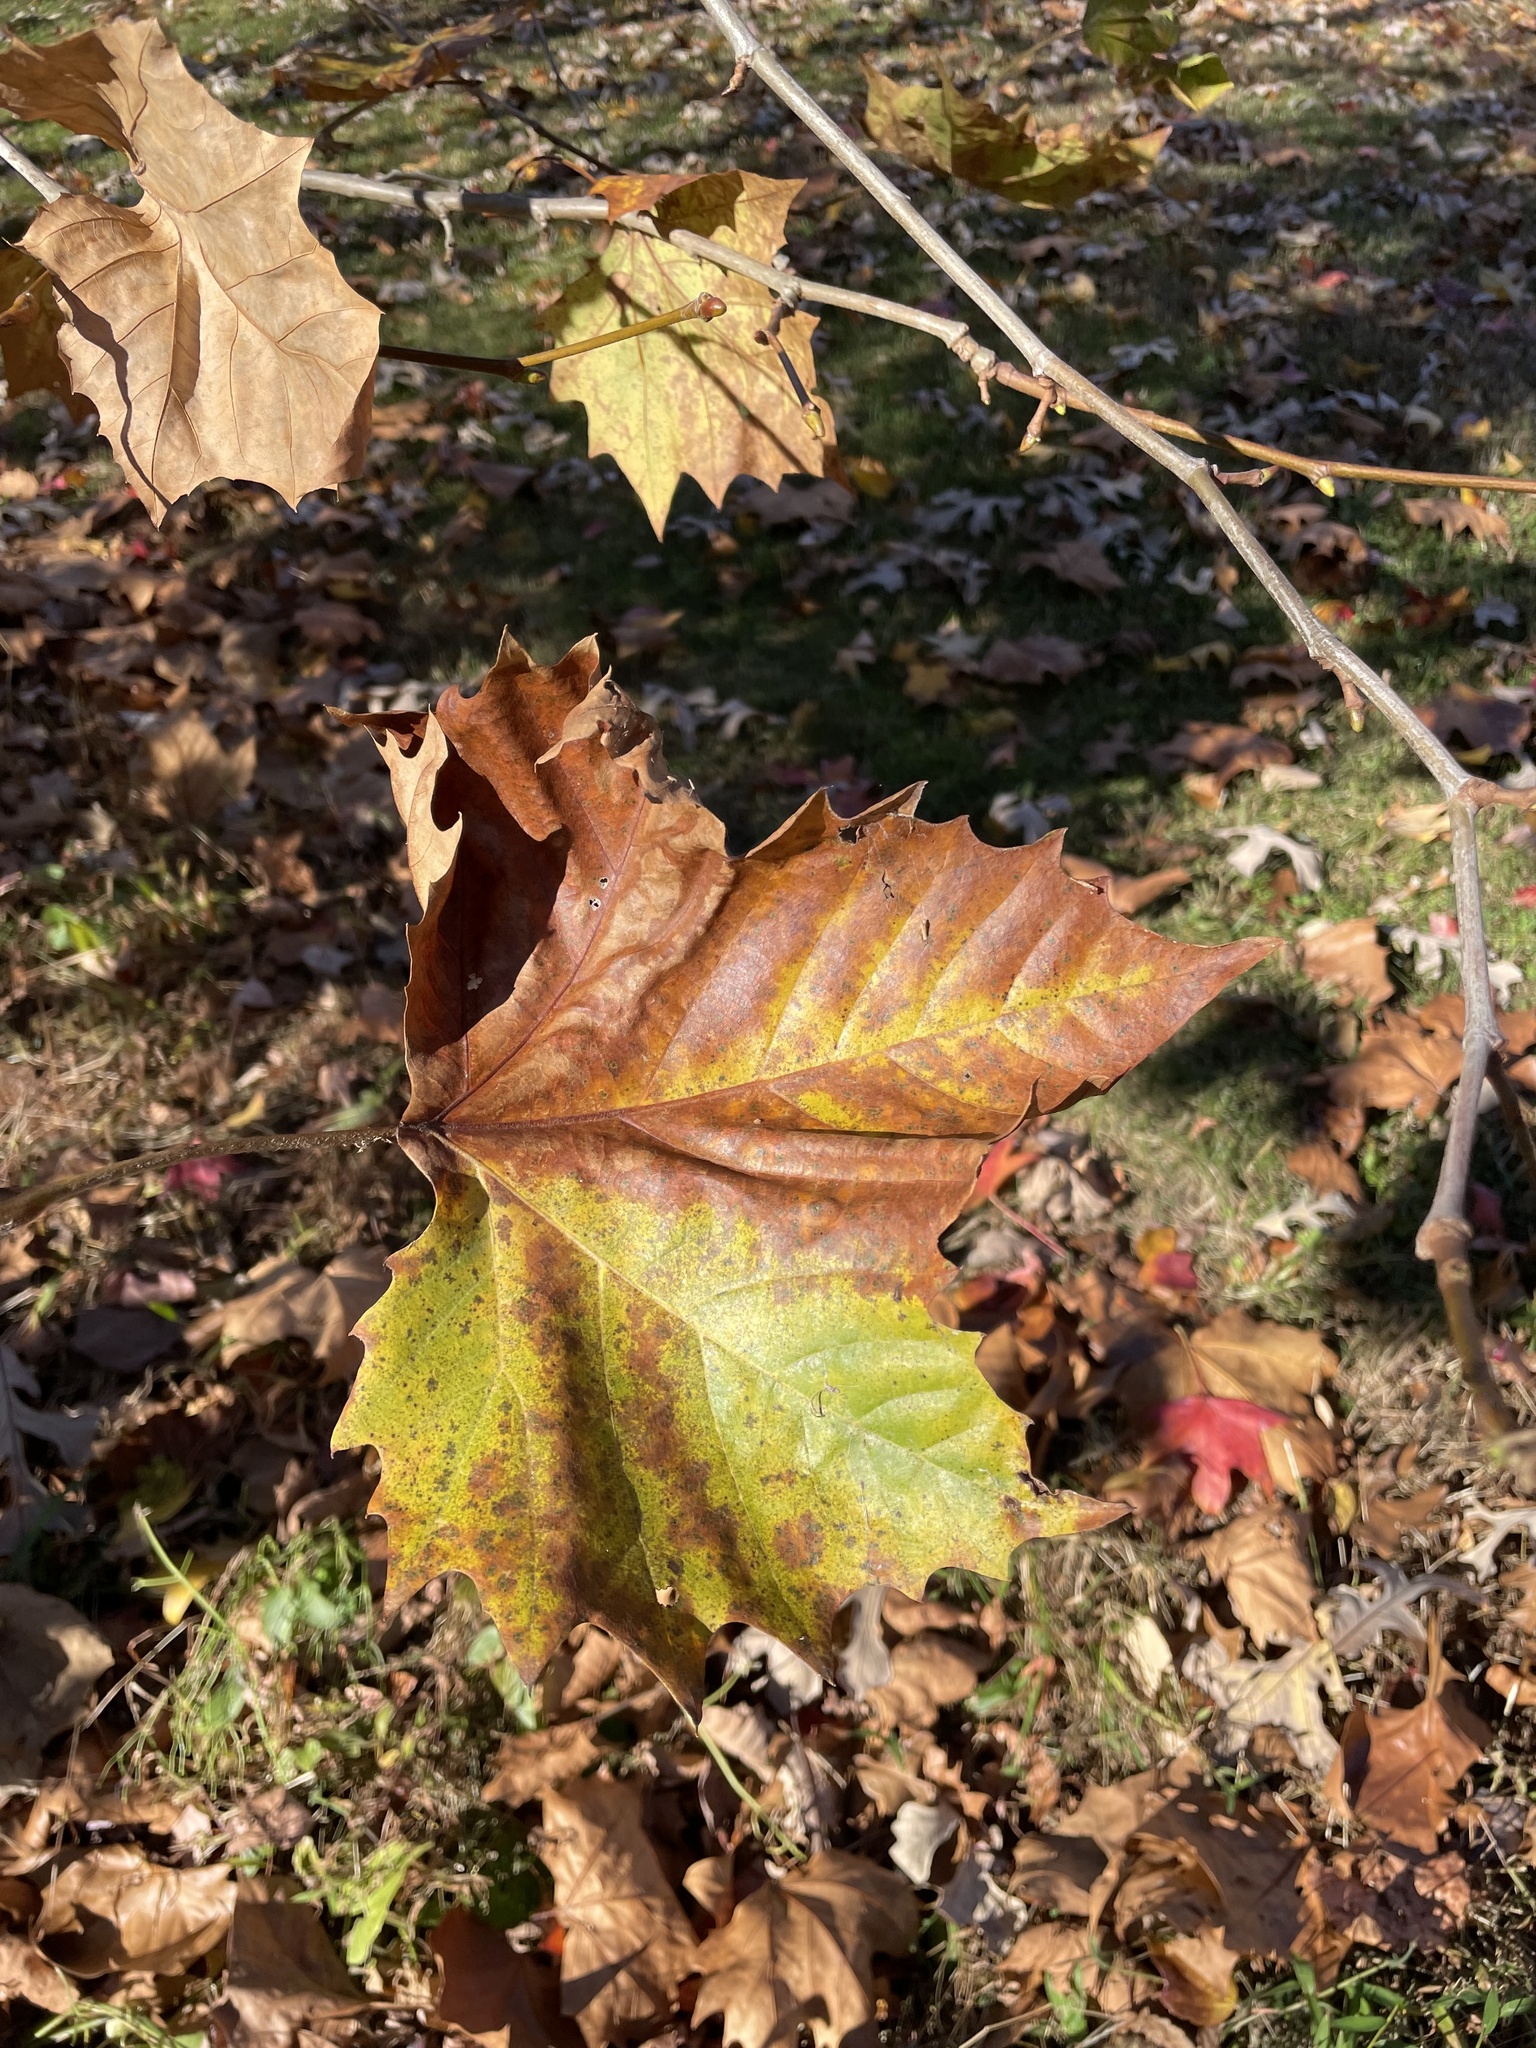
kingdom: Plantae
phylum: Tracheophyta
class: Magnoliopsida
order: Proteales
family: Platanaceae
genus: Platanus
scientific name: Platanus occidentalis
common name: American sycamore
